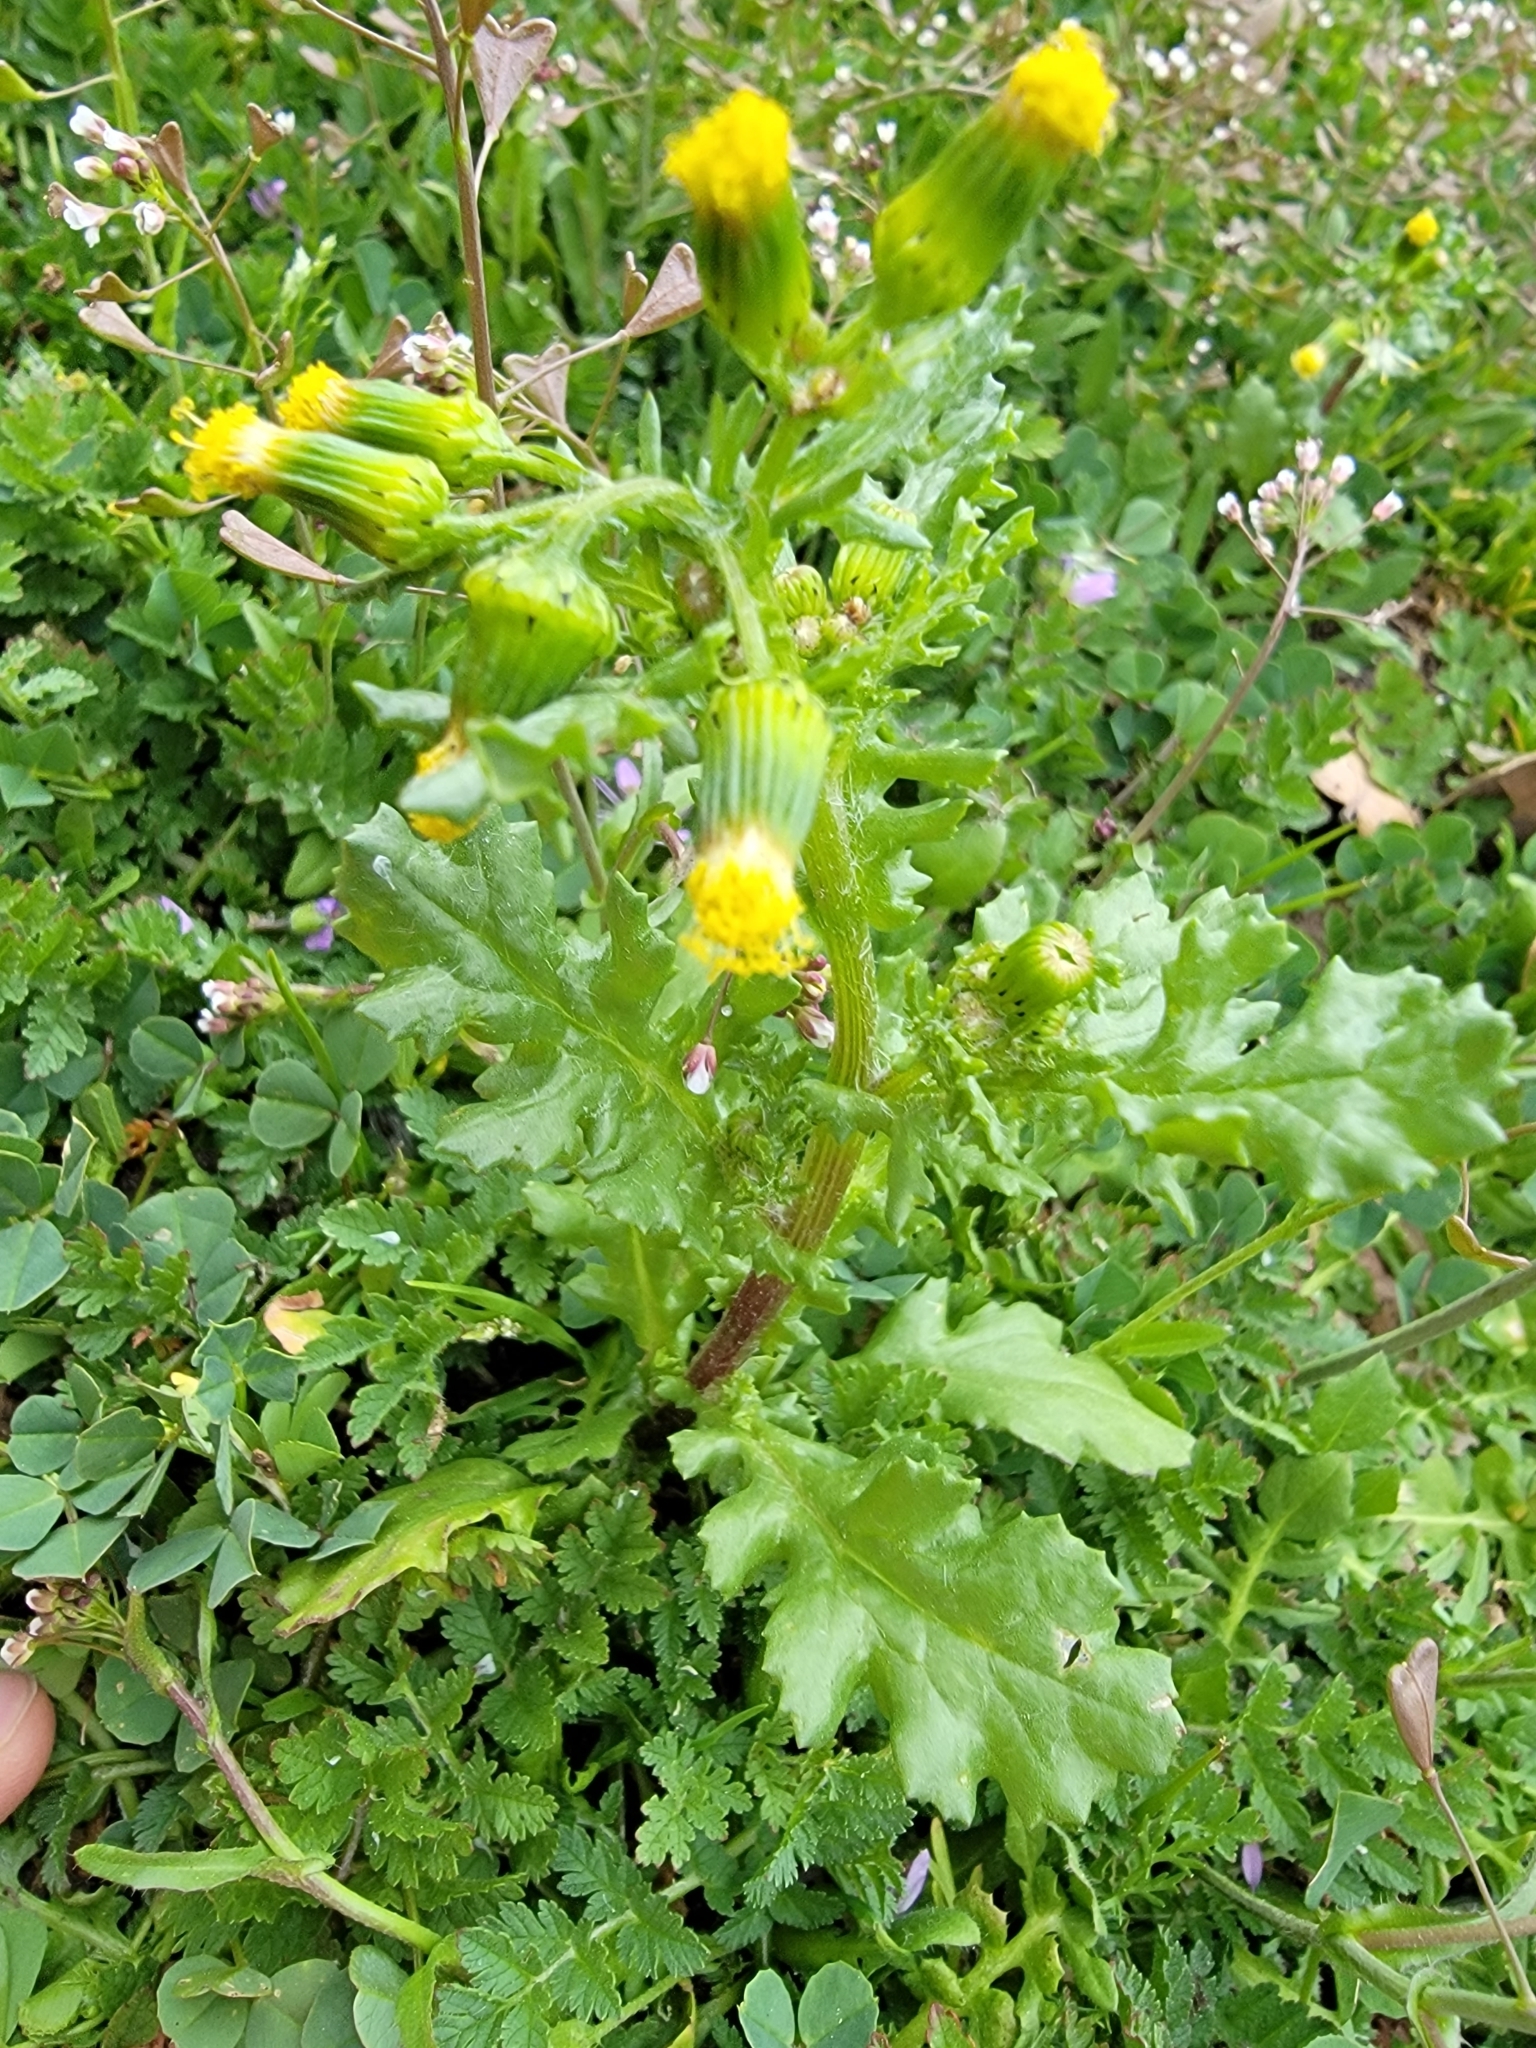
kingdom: Plantae
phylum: Tracheophyta
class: Magnoliopsida
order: Asterales
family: Asteraceae
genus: Senecio
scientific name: Senecio vulgaris
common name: Old-man-in-the-spring
